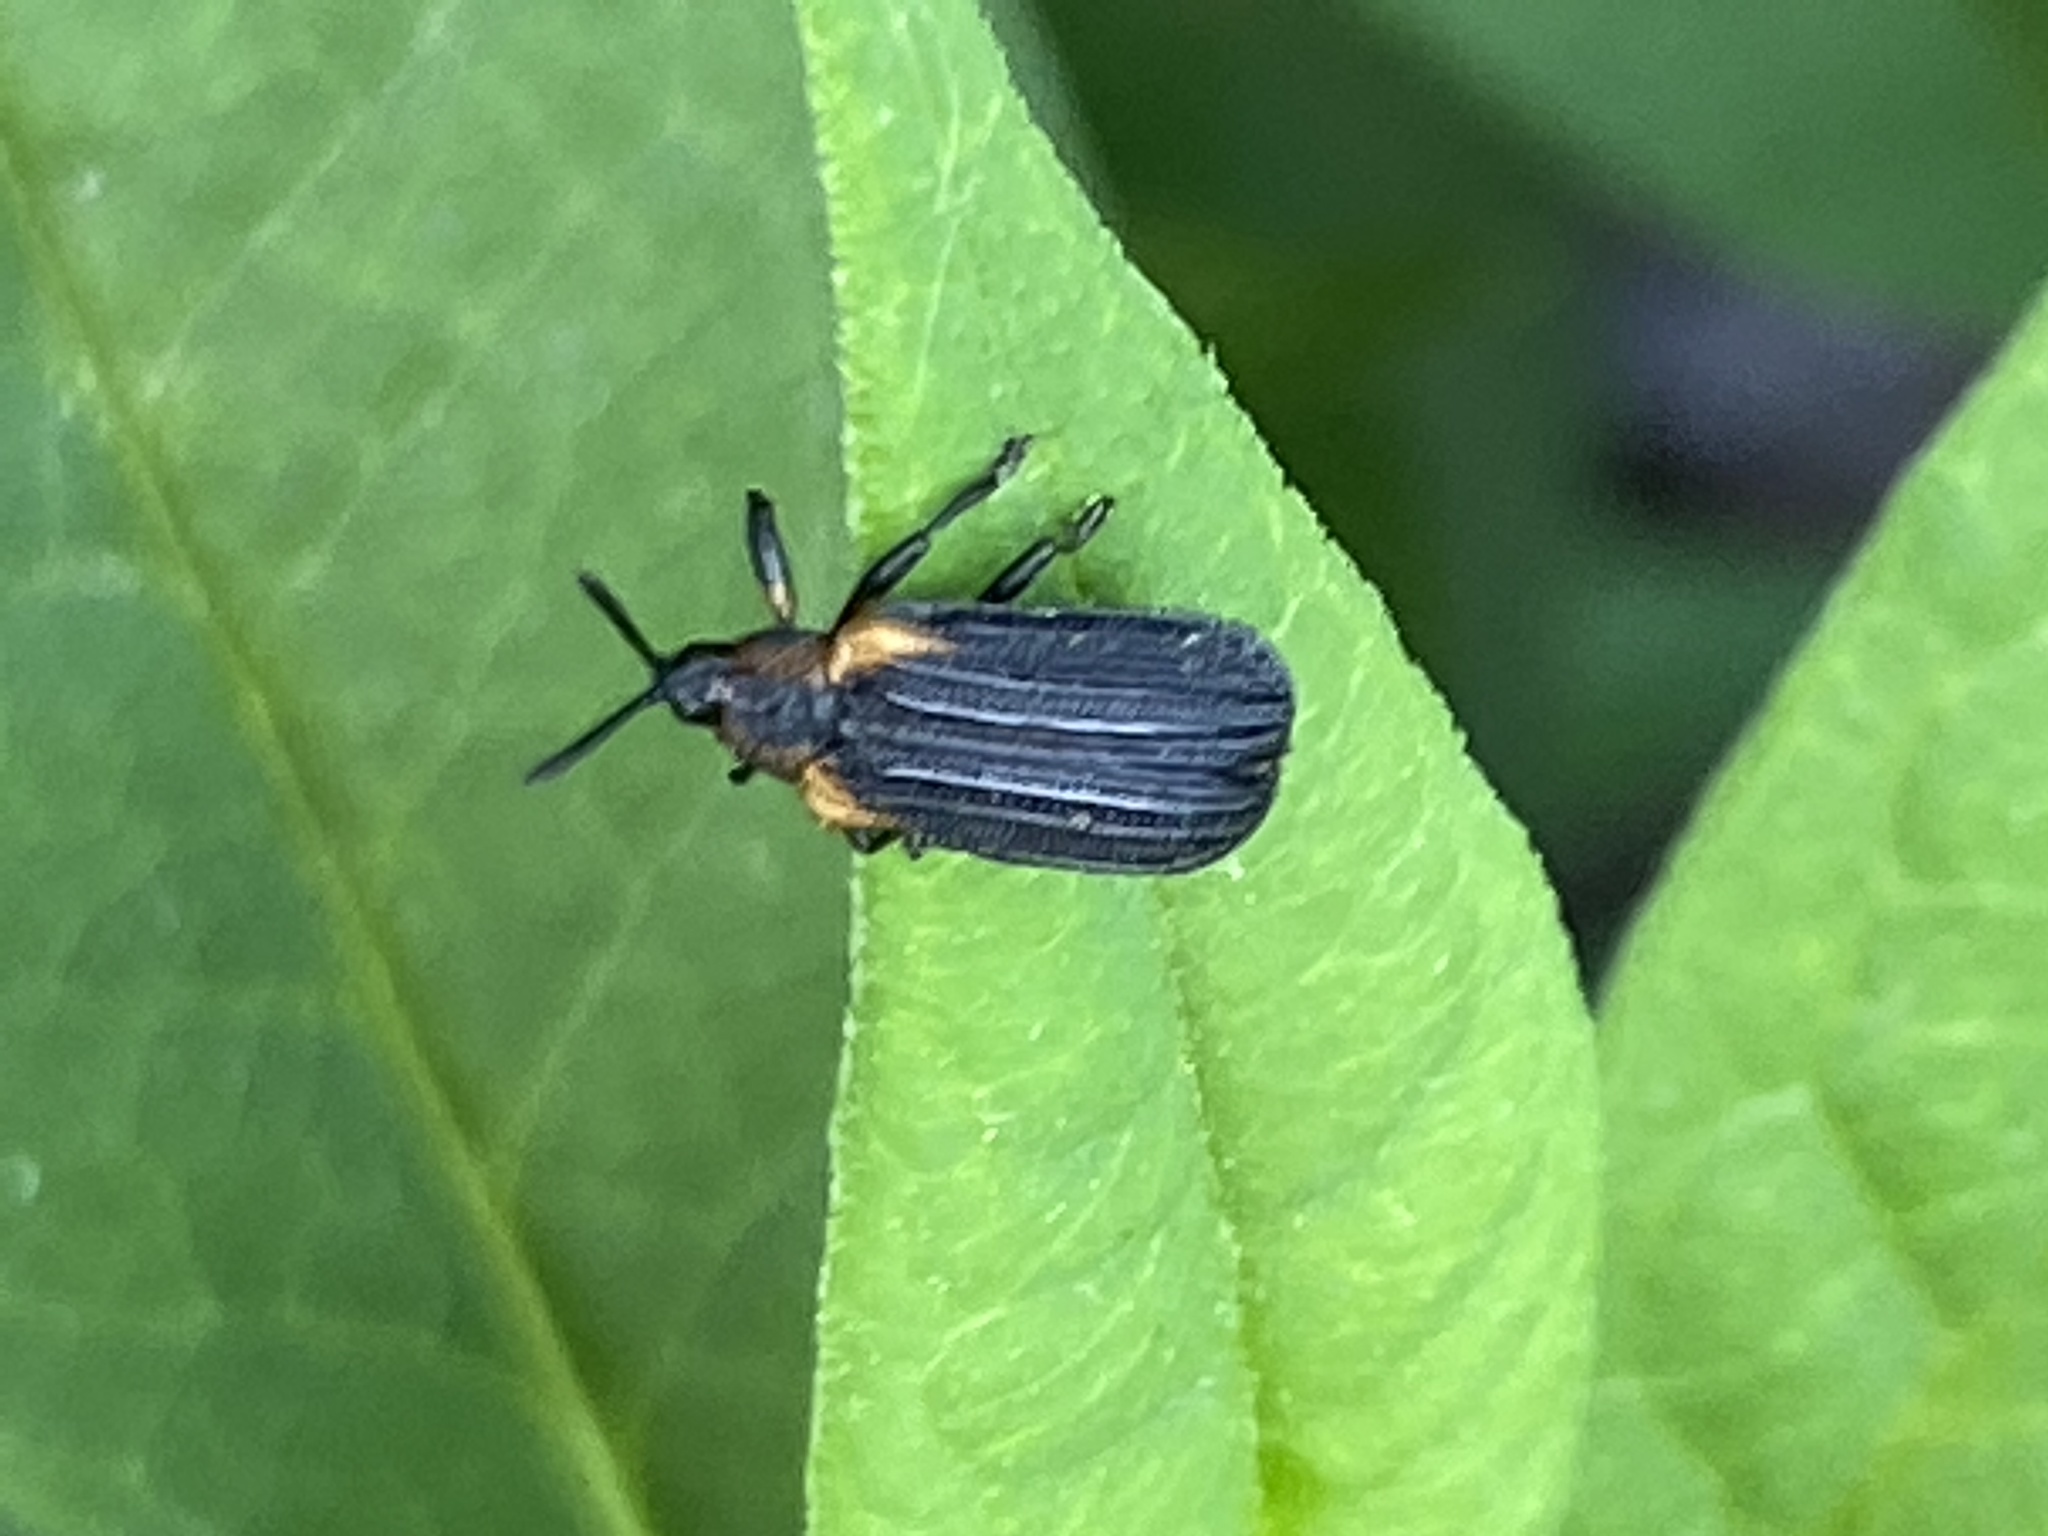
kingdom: Animalia
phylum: Arthropoda
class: Insecta
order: Coleoptera
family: Chrysomelidae
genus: Odontota
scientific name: Odontota scapularis
